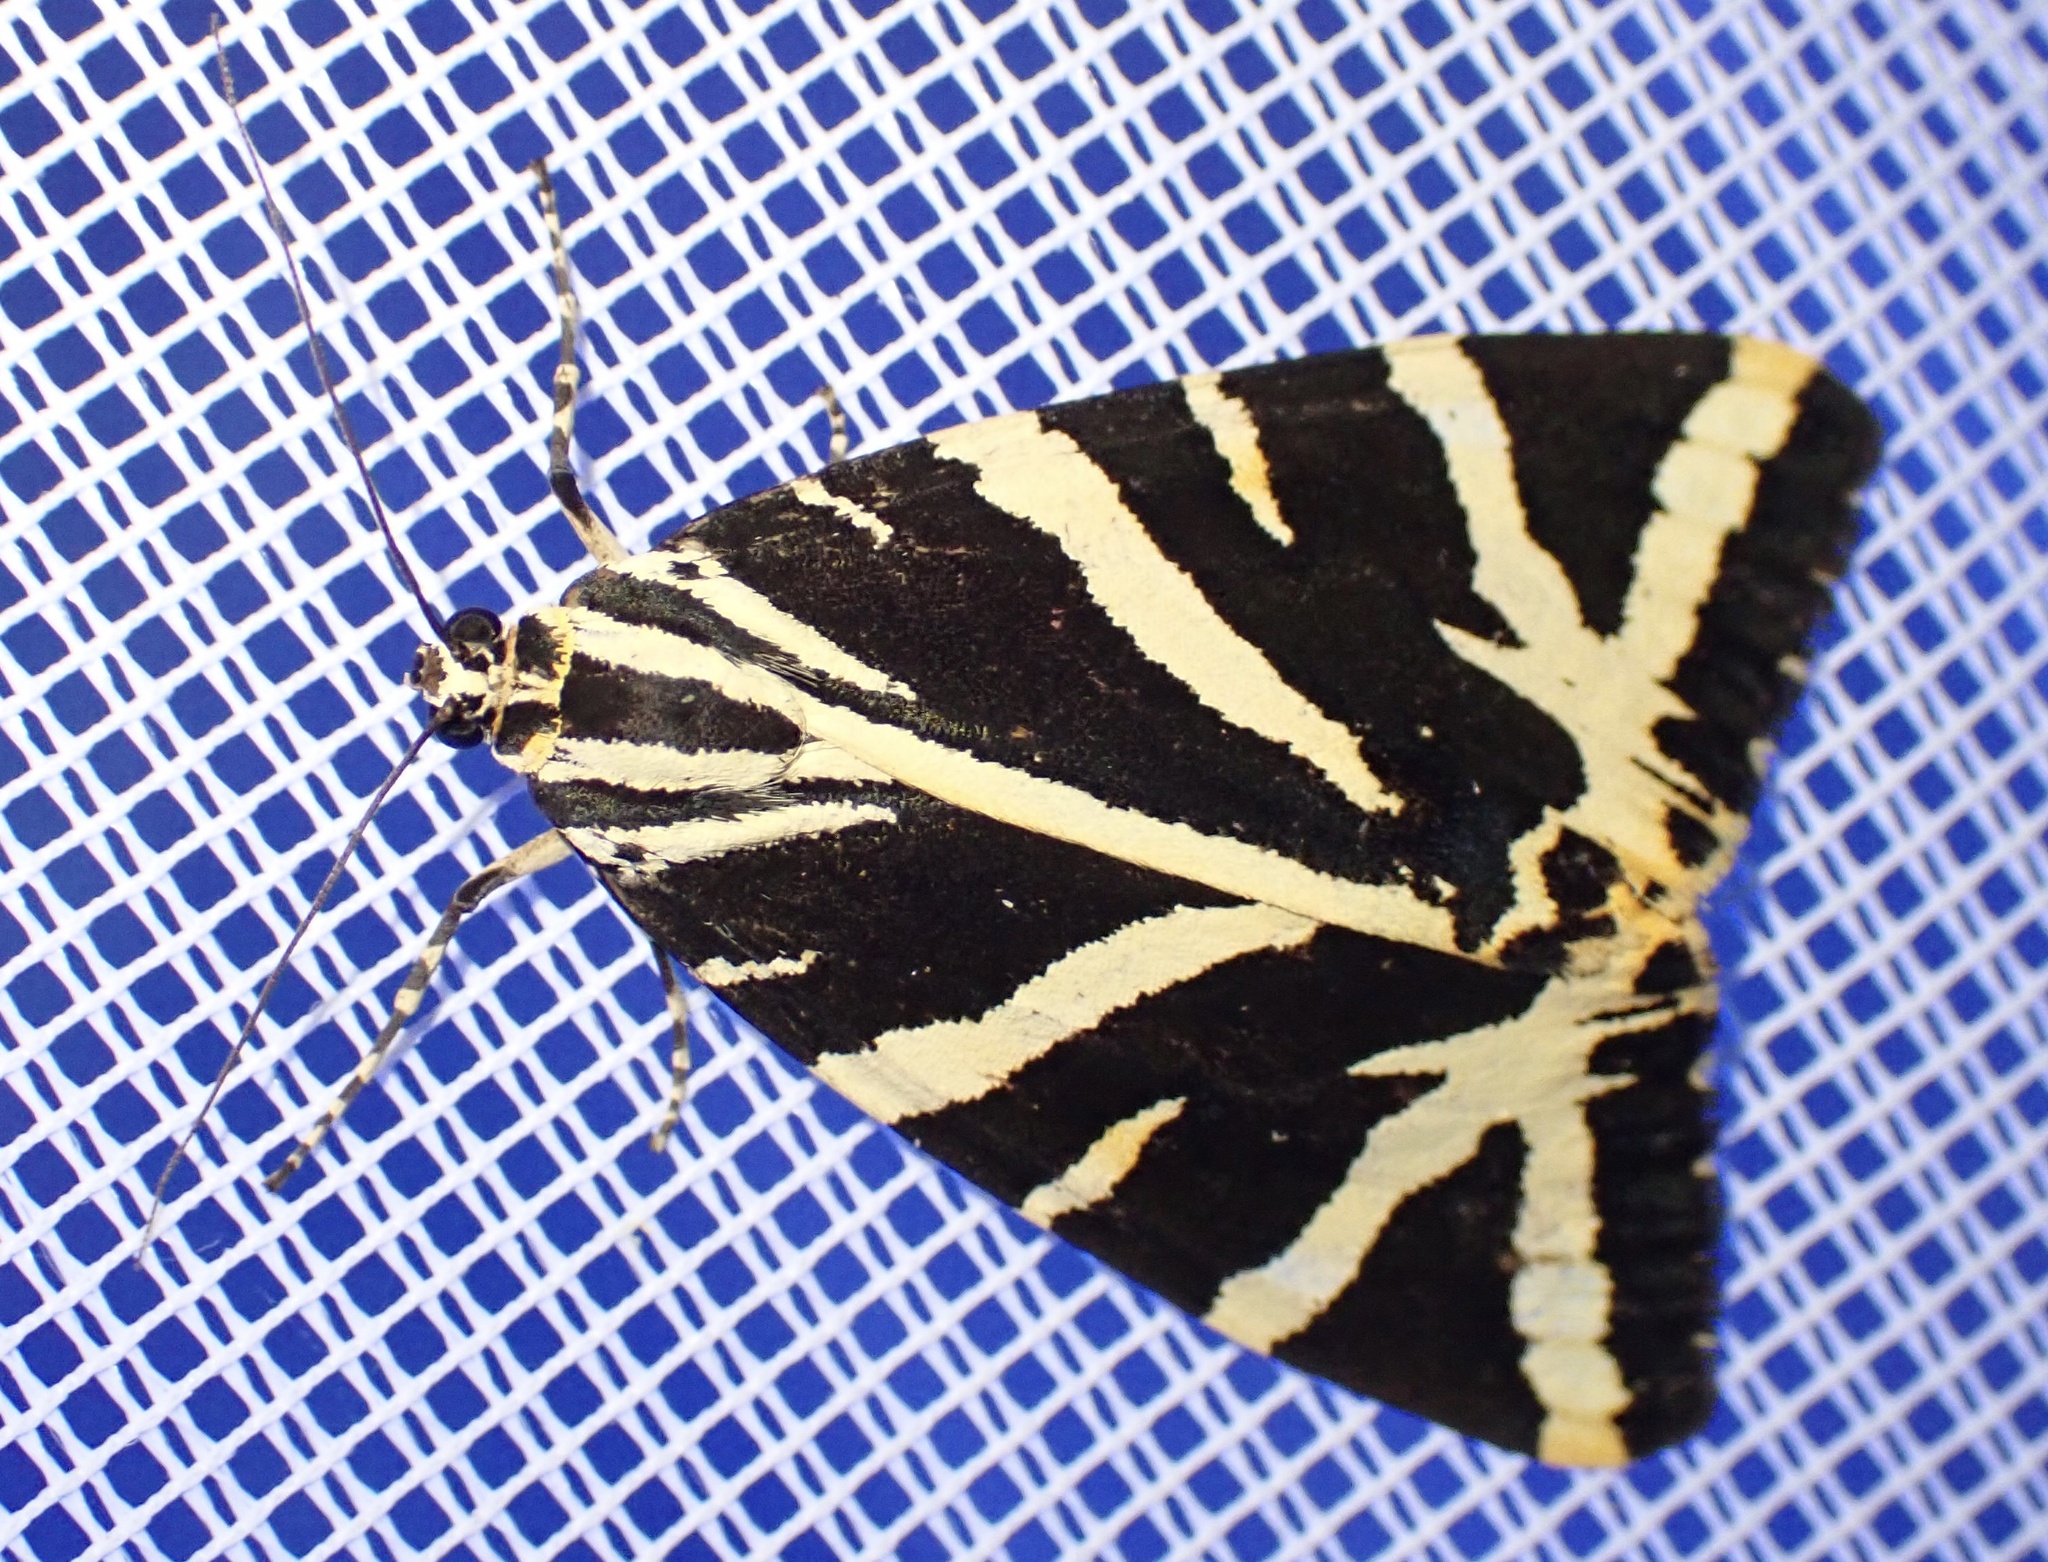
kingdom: Animalia
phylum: Arthropoda
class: Insecta
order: Lepidoptera
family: Erebidae
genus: Euplagia
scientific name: Euplagia quadripunctaria
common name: Jersey tiger
